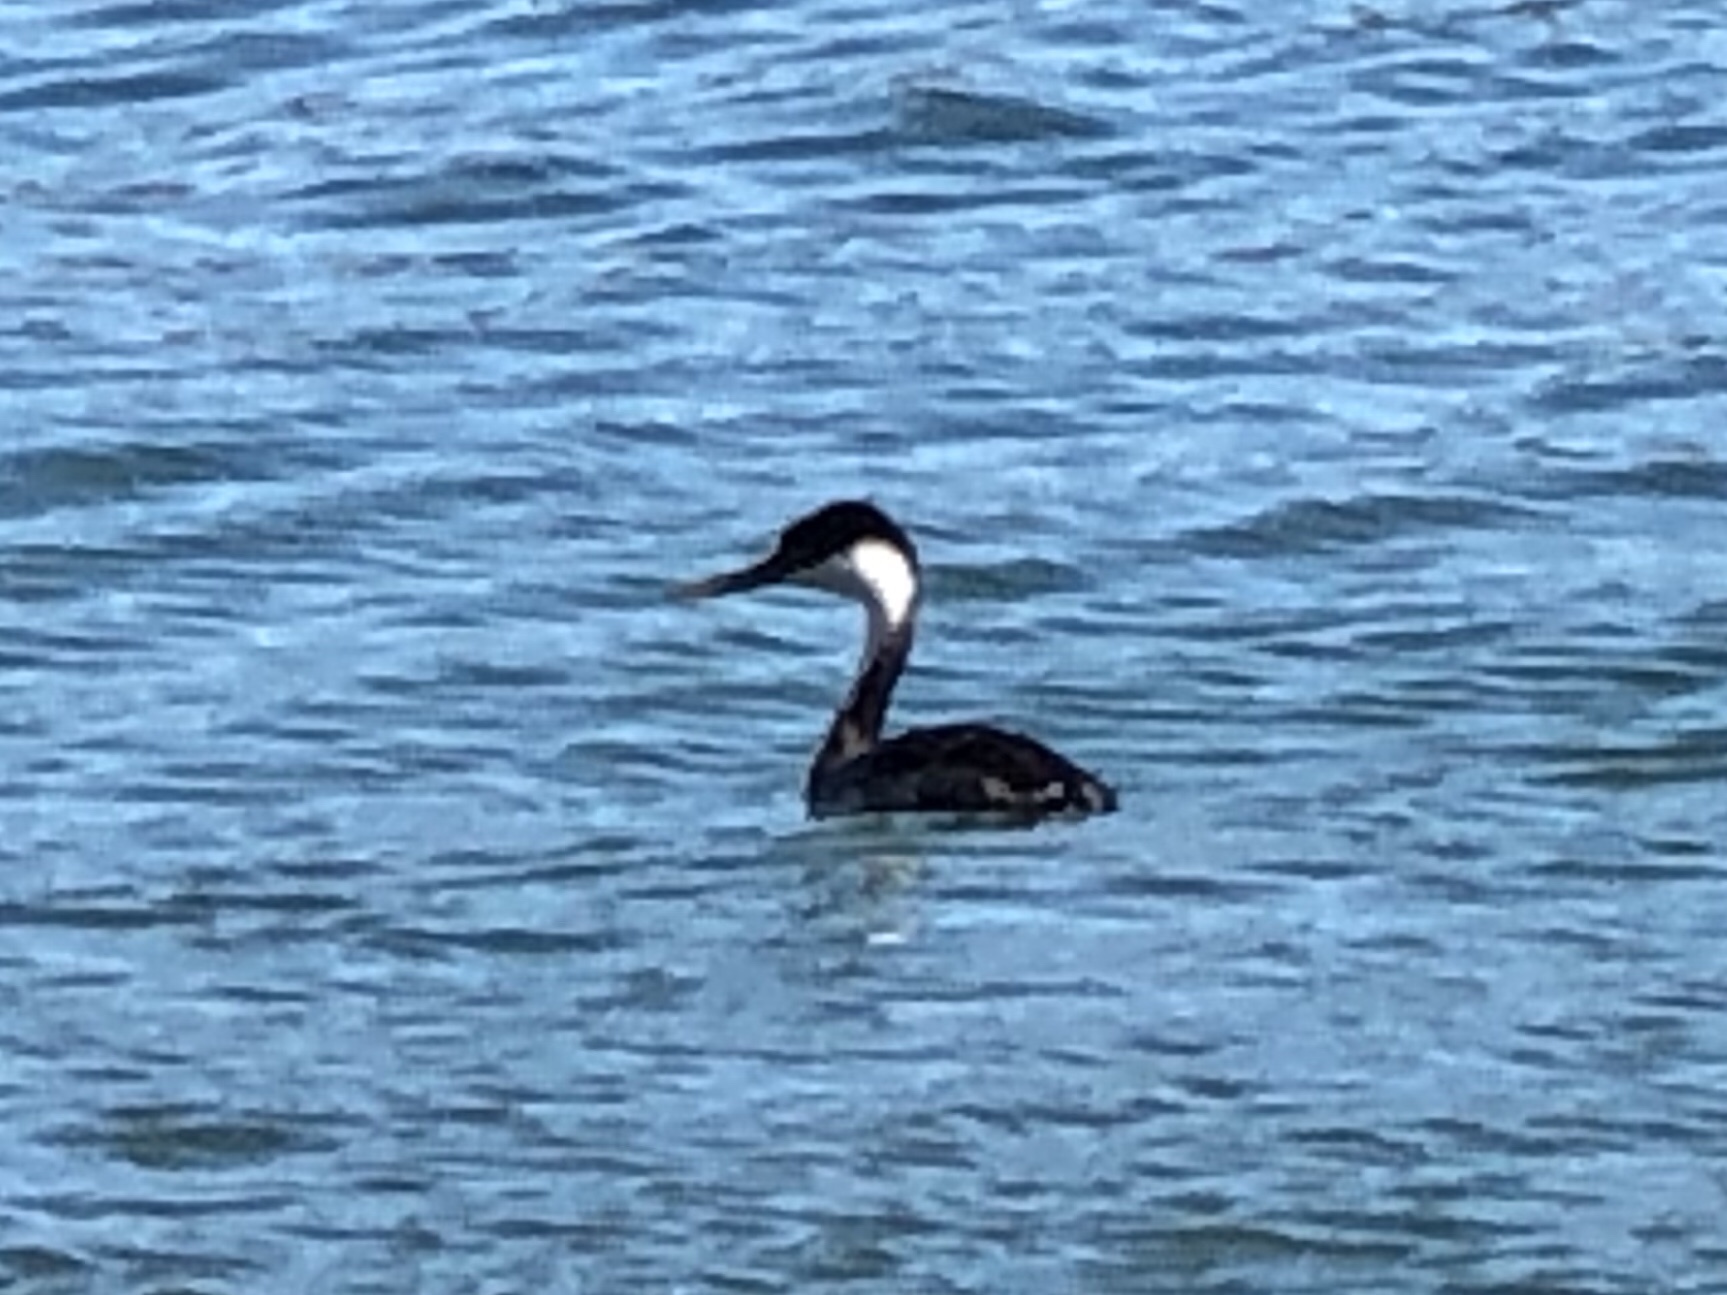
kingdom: Animalia
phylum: Chordata
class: Aves
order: Podicipediformes
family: Podicipedidae
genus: Aechmophorus
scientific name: Aechmophorus occidentalis
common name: Western grebe
